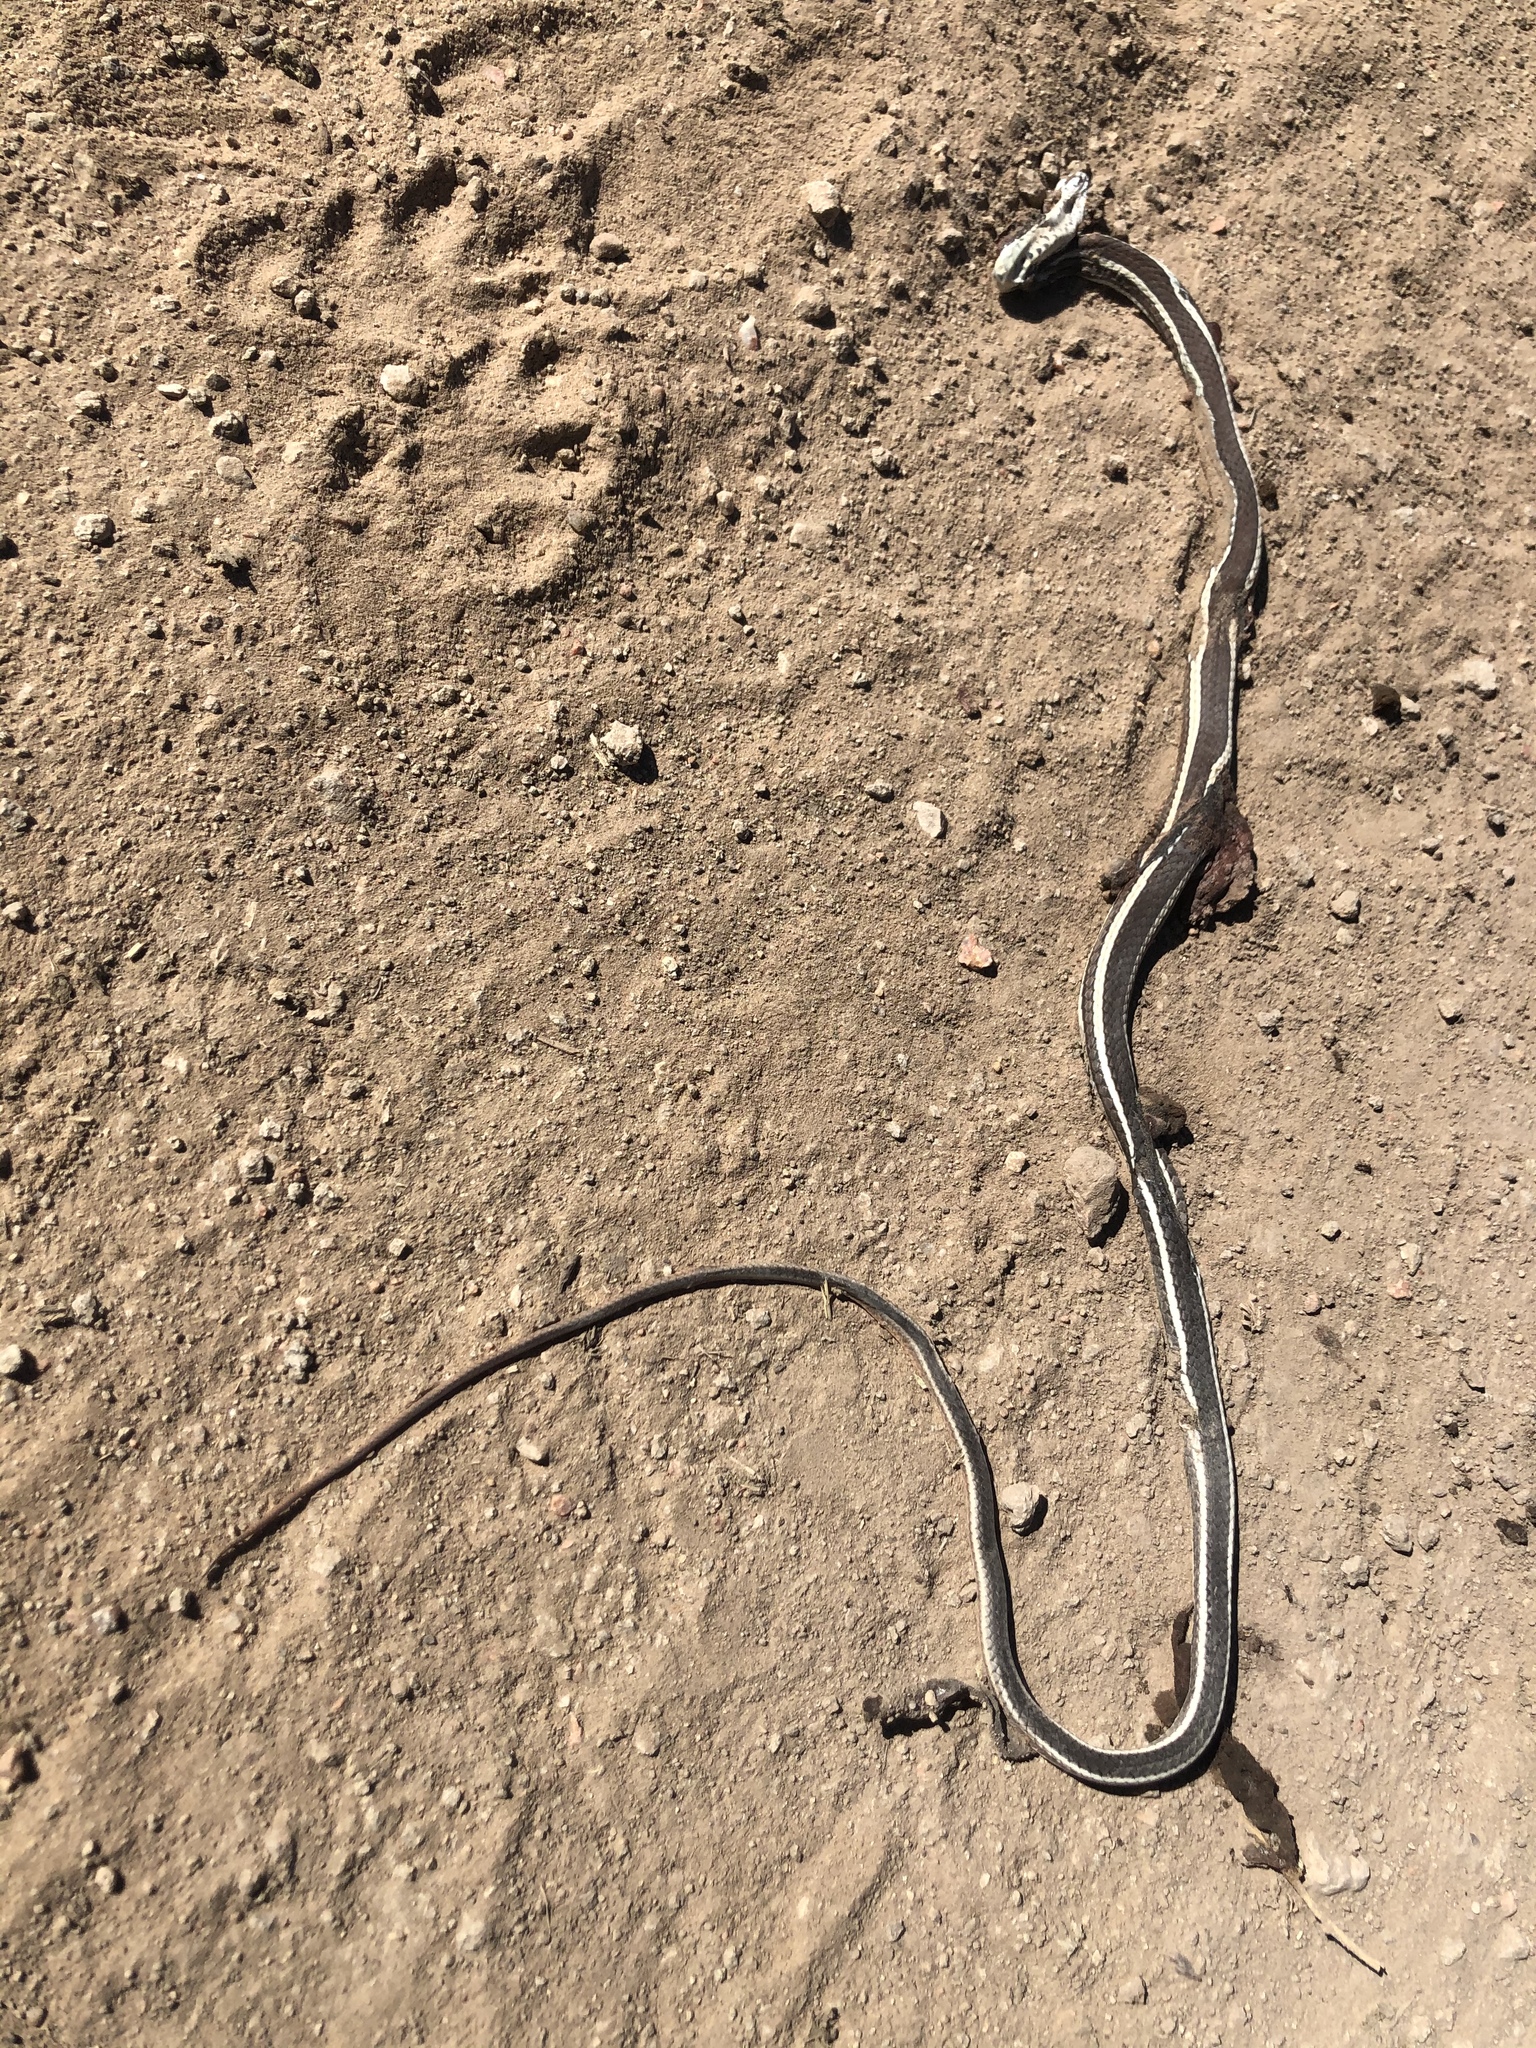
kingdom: Animalia
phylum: Chordata
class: Squamata
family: Colubridae
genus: Masticophis
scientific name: Masticophis taeniatus
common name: Striped whipsnake
